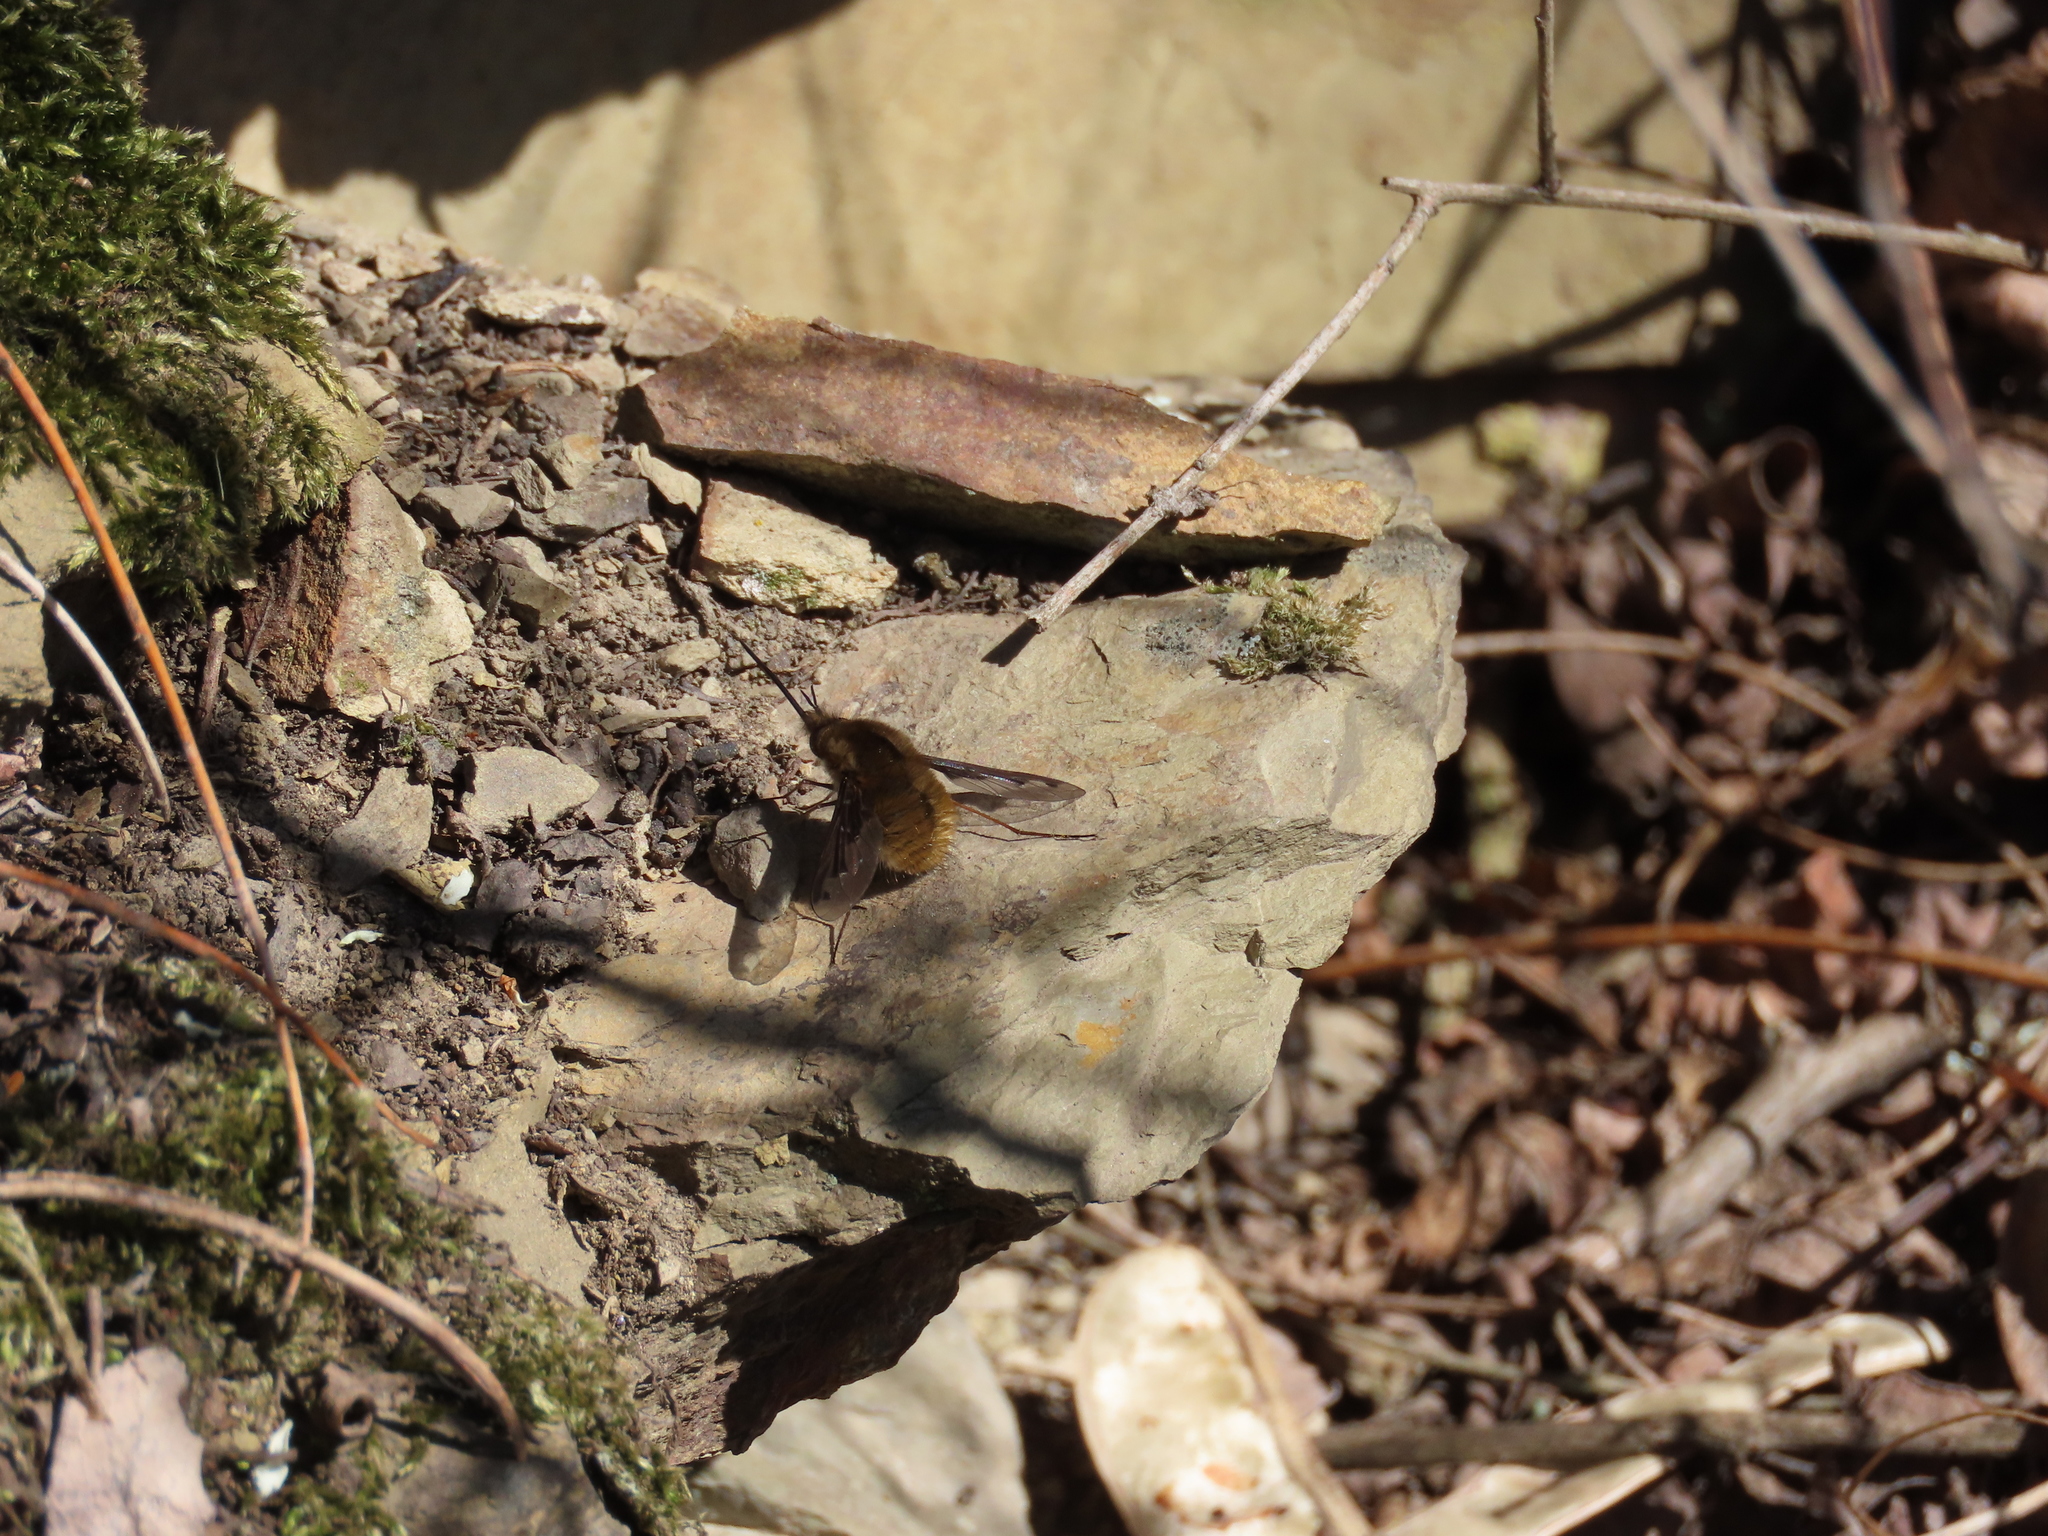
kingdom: Animalia
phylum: Arthropoda
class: Insecta
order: Diptera
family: Bombyliidae
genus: Bombylius
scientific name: Bombylius major
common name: Bee fly
